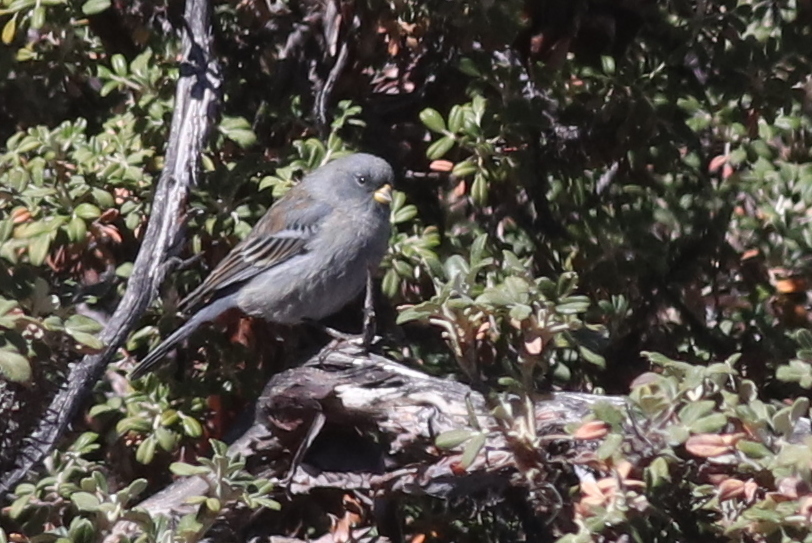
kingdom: Animalia
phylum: Chordata
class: Aves
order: Passeriformes
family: Thraupidae
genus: Catamenia
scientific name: Catamenia analis
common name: Band-tailed seedeater
